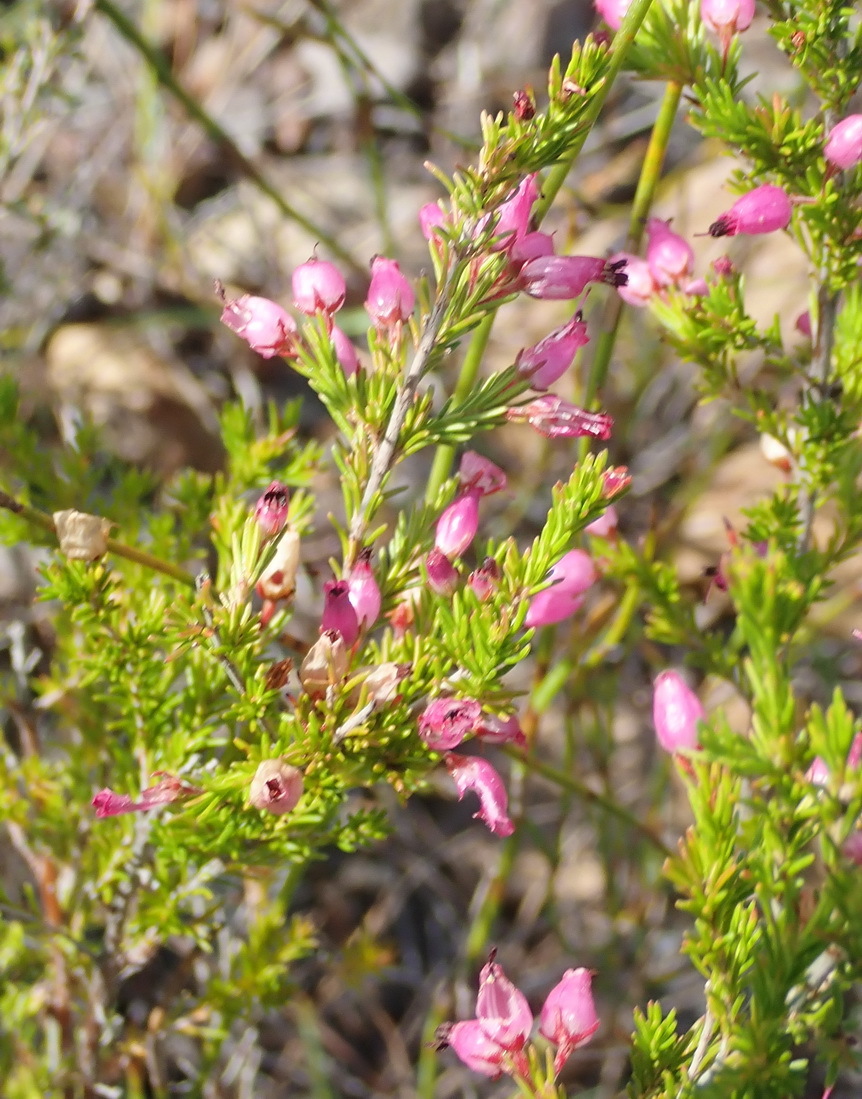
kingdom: Plantae
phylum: Tracheophyta
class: Magnoliopsida
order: Ericales
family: Ericaceae
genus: Erica
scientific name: Erica nutans
